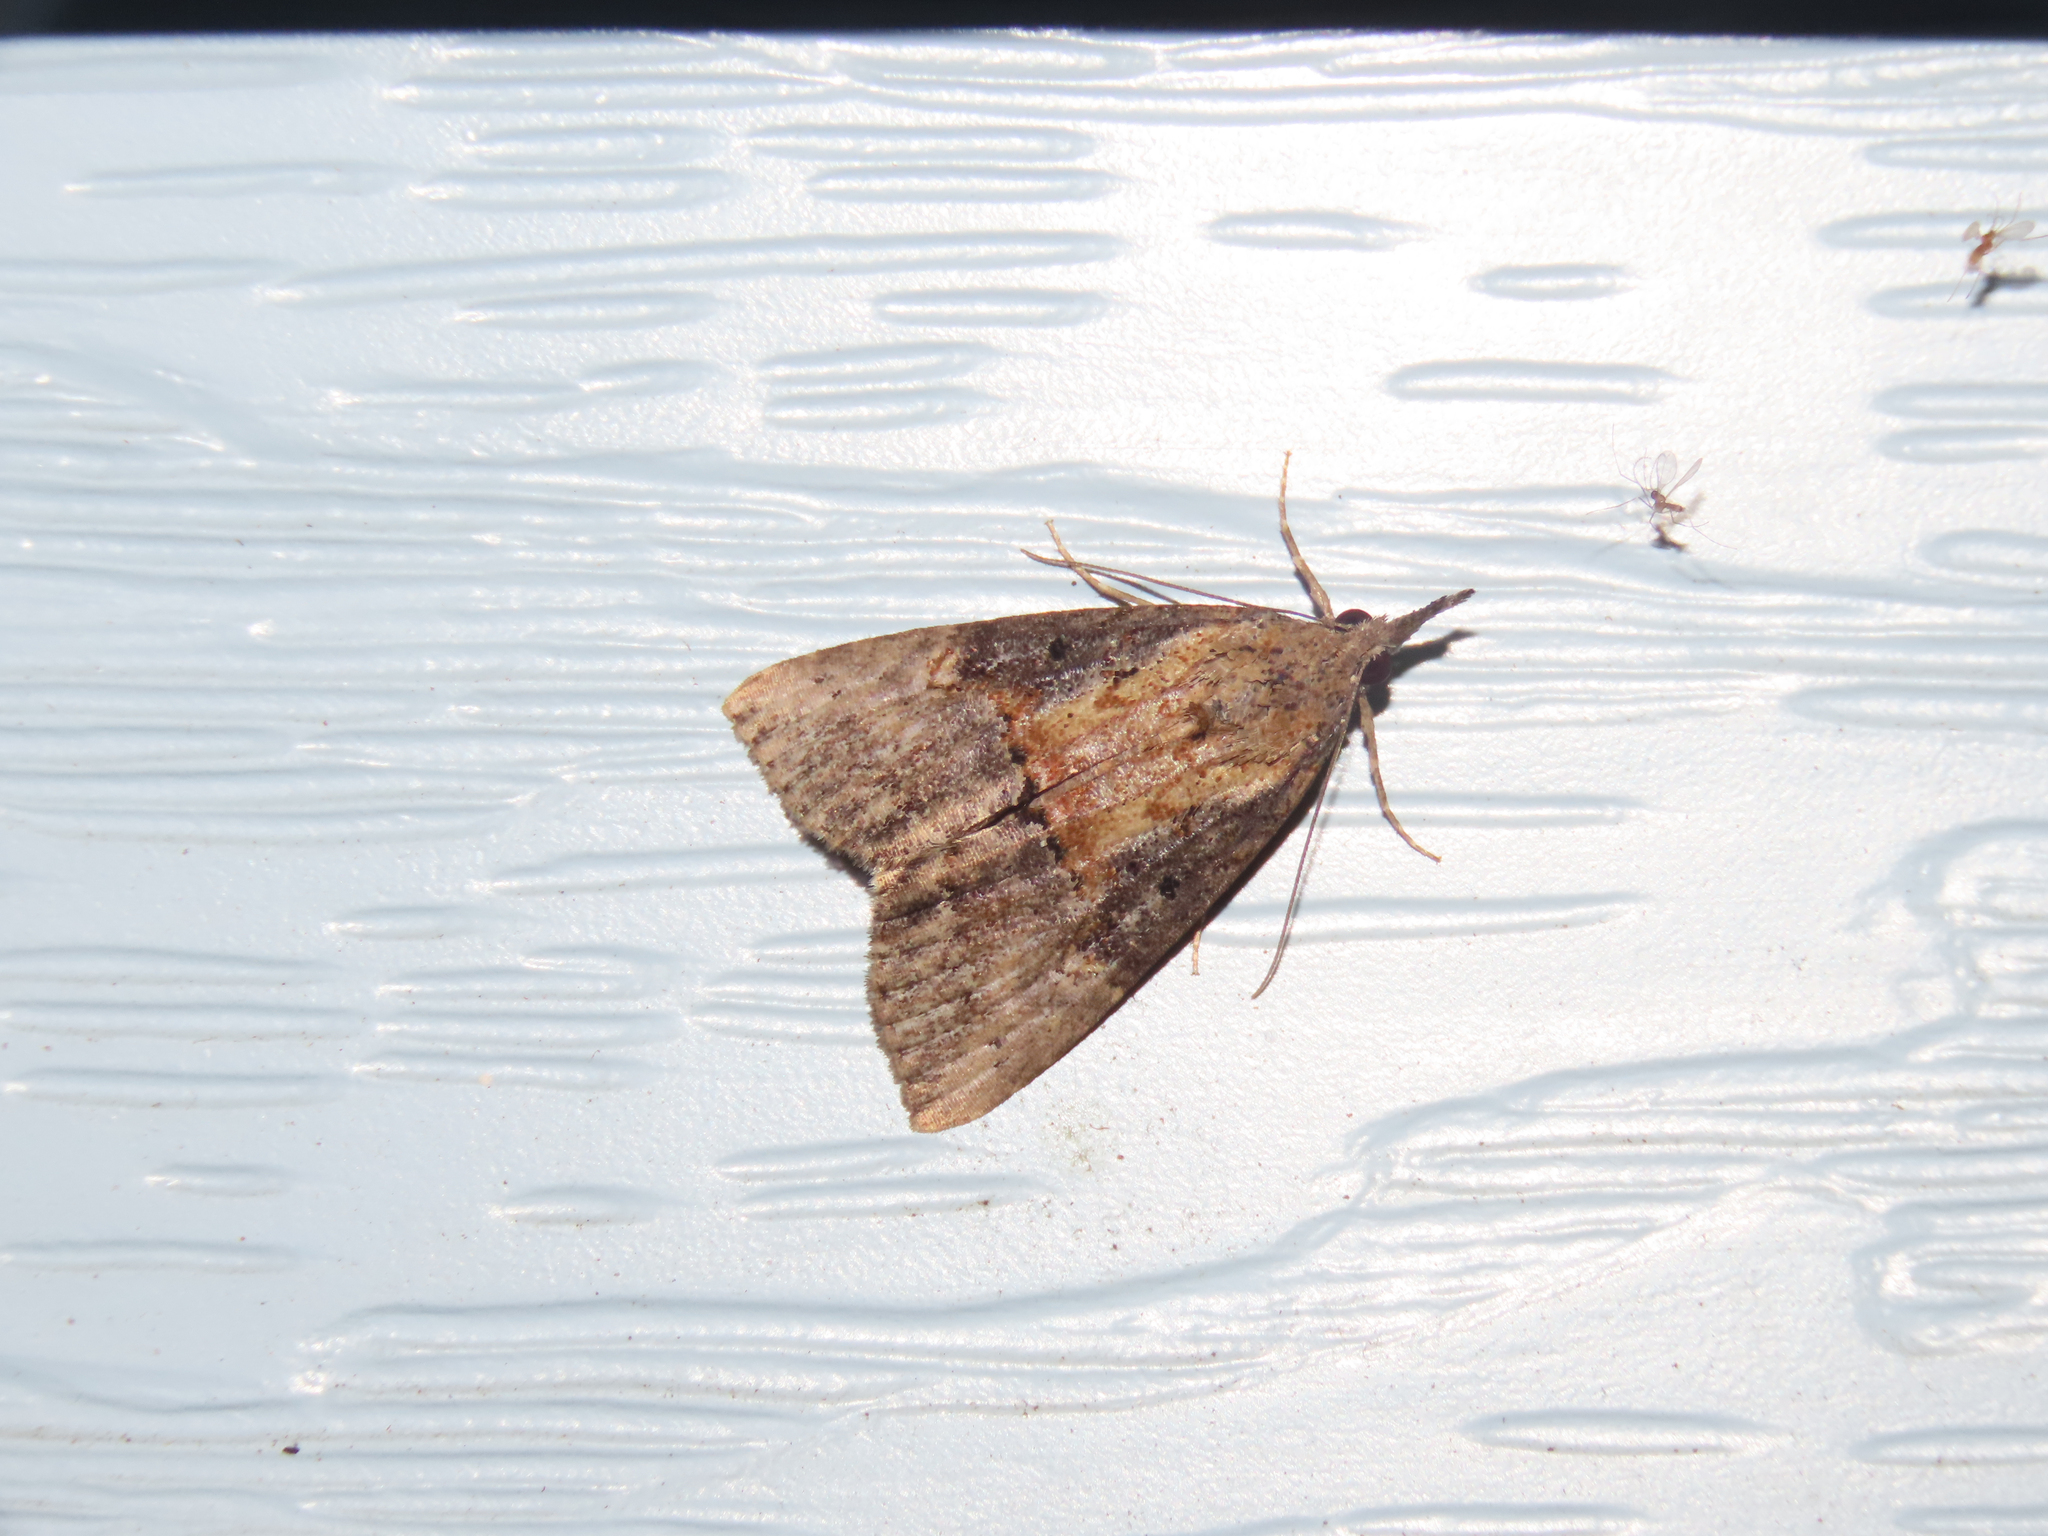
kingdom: Animalia
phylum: Arthropoda
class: Insecta
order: Lepidoptera
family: Erebidae
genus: Hypena
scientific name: Hypena scabra
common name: Green cloverworm
